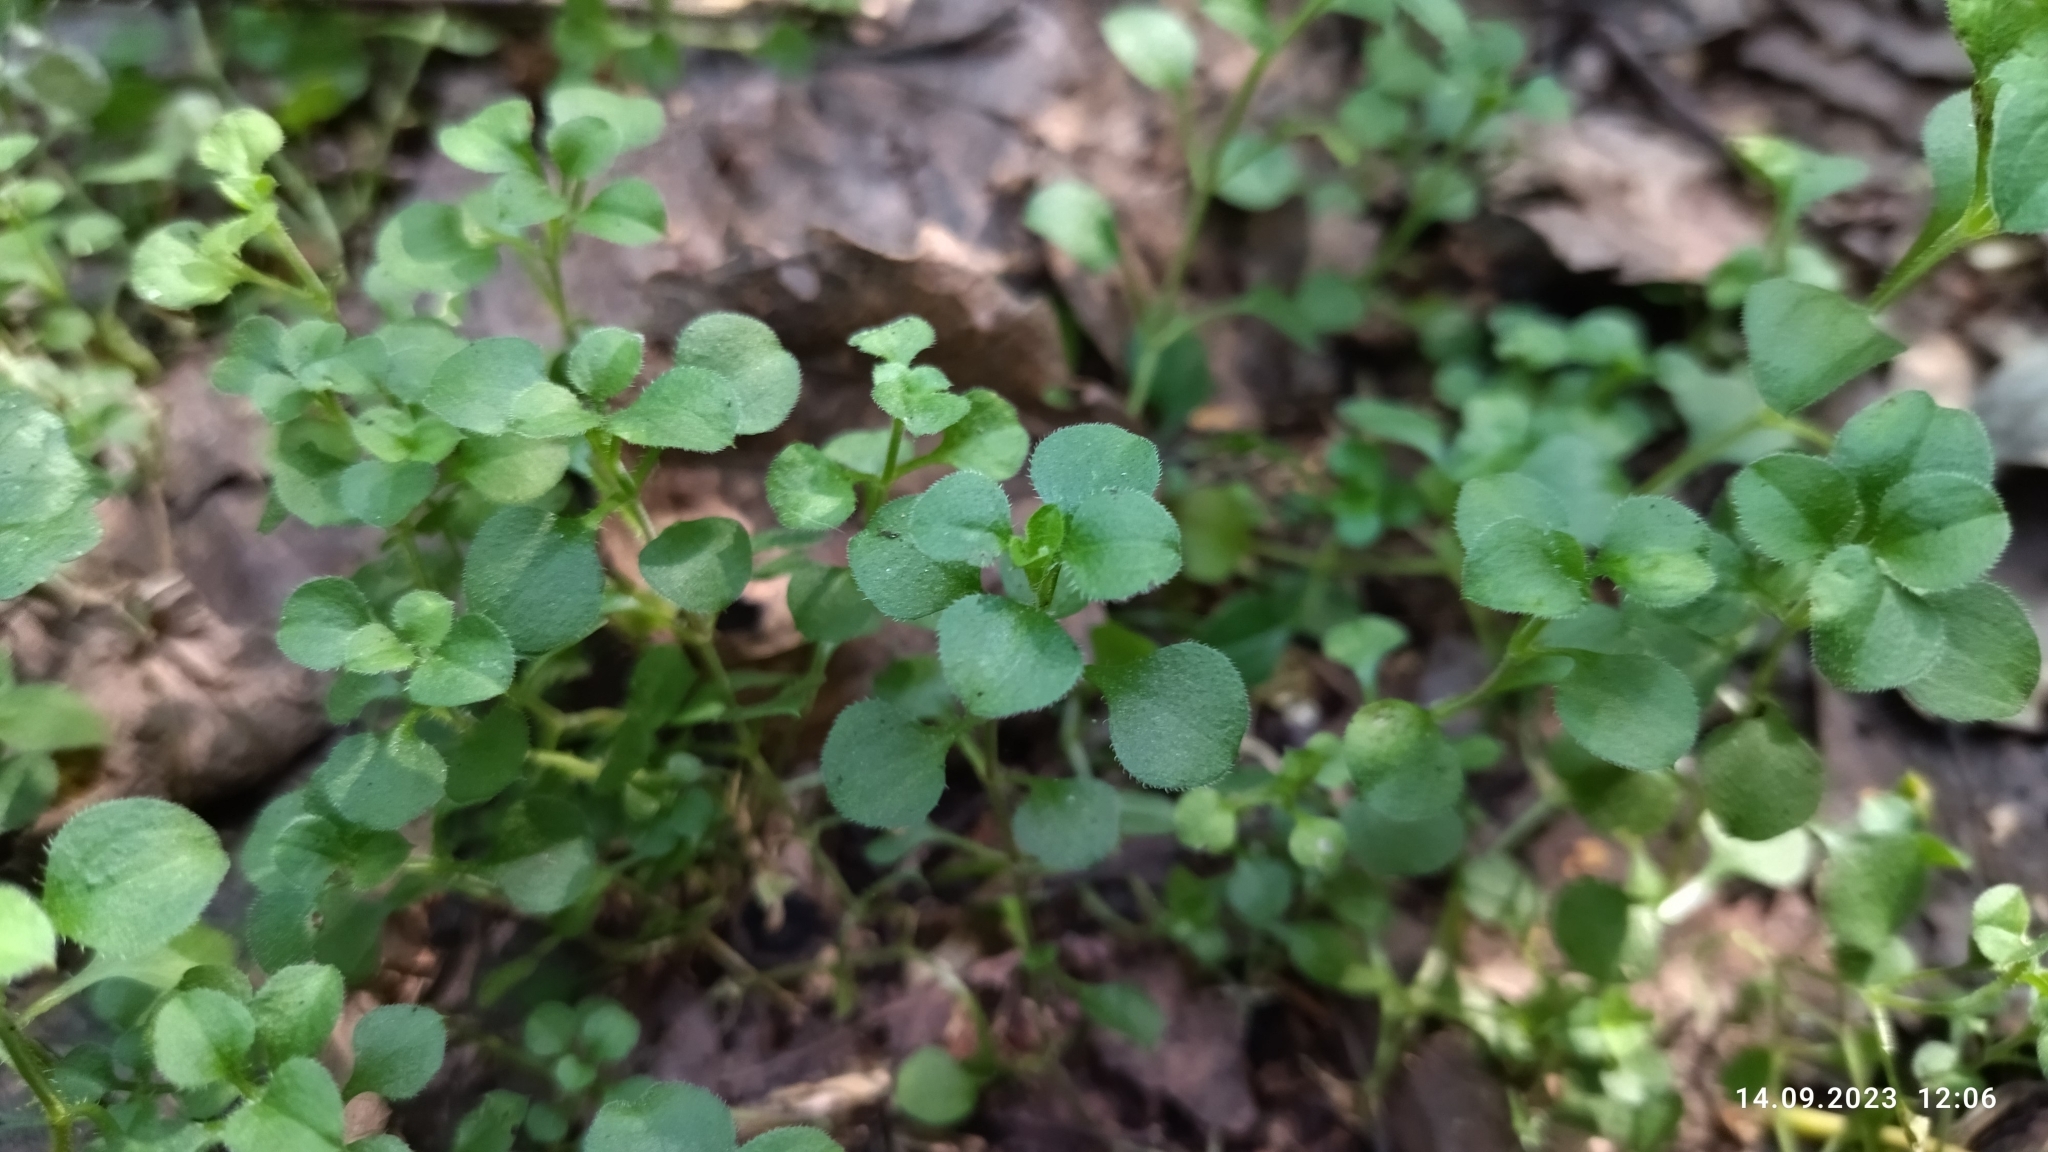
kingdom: Plantae
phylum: Tracheophyta
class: Magnoliopsida
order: Caryophyllales
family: Caryophyllaceae
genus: Moehringia
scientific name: Moehringia trinervia
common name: Three-nerved sandwort
